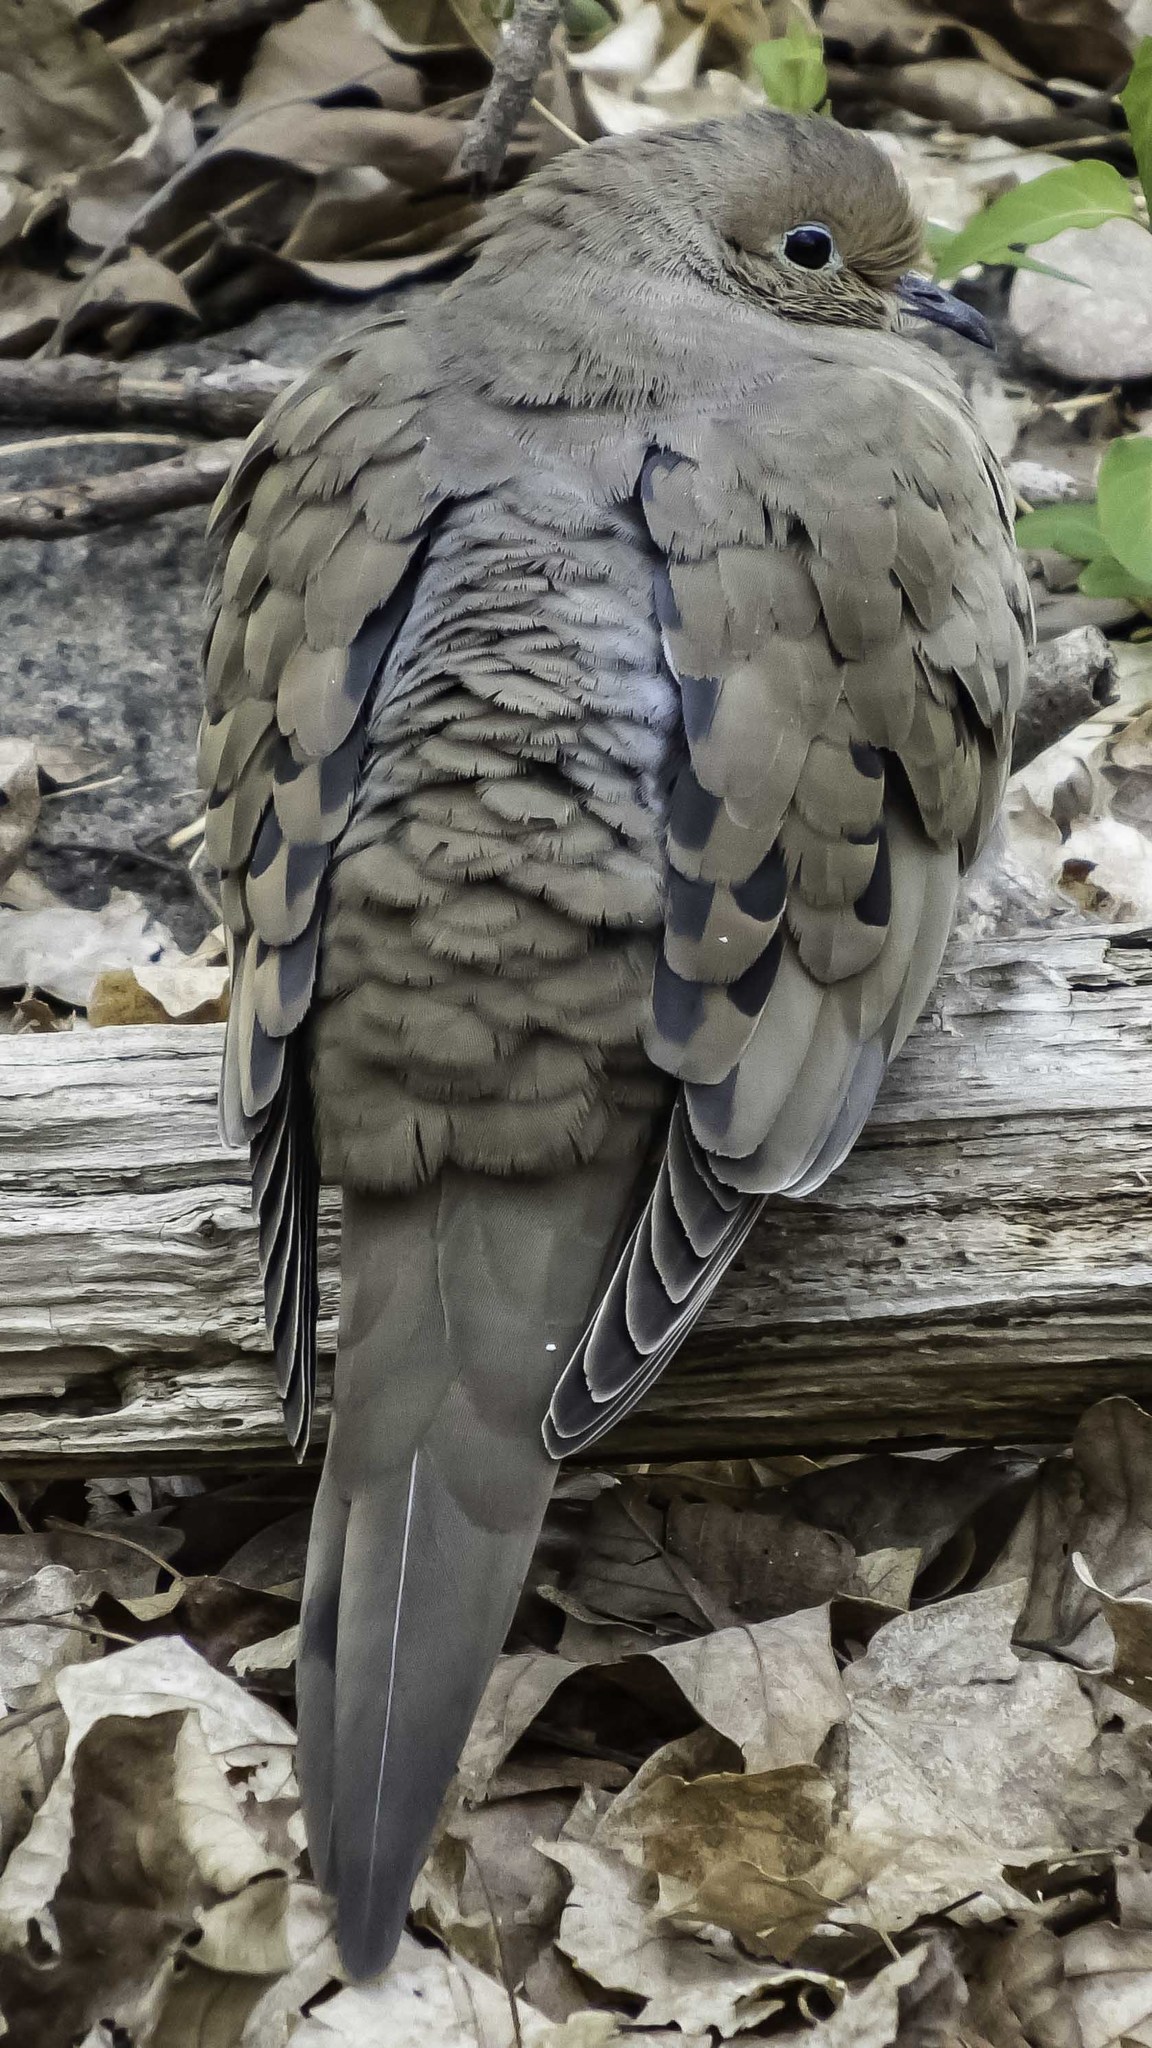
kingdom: Animalia
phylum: Chordata
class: Aves
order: Columbiformes
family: Columbidae
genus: Zenaida
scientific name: Zenaida macroura
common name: Mourning dove
